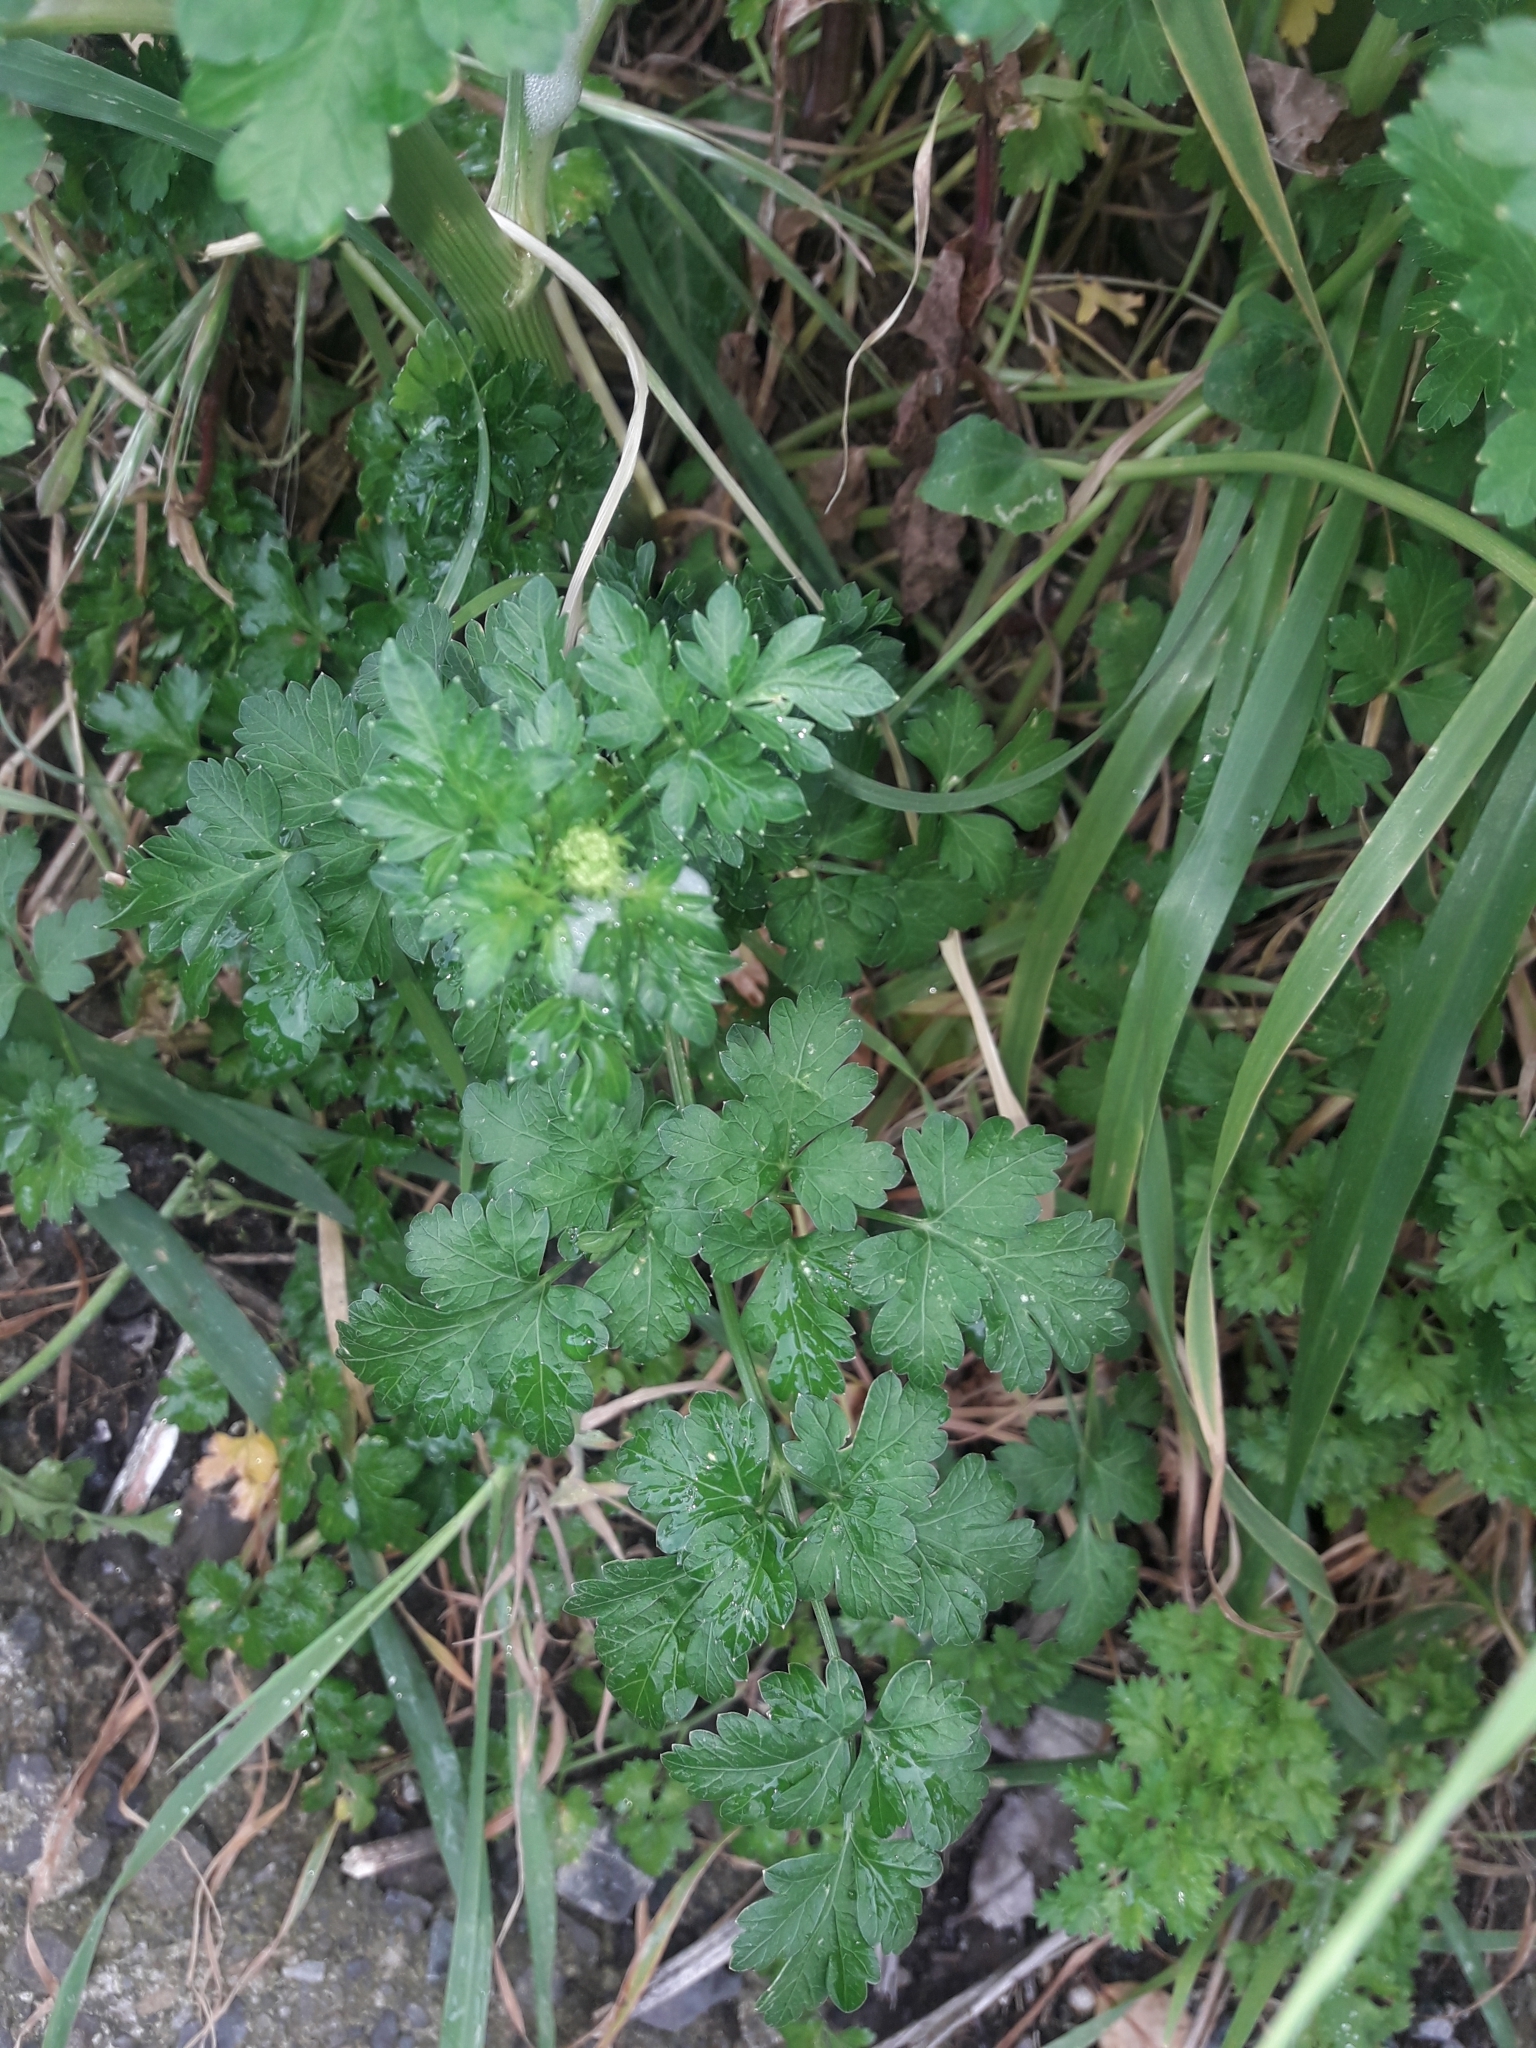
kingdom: Plantae
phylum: Tracheophyta
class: Magnoliopsida
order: Apiales
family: Apiaceae
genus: Petroselinum
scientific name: Petroselinum crispum
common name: Parsley
